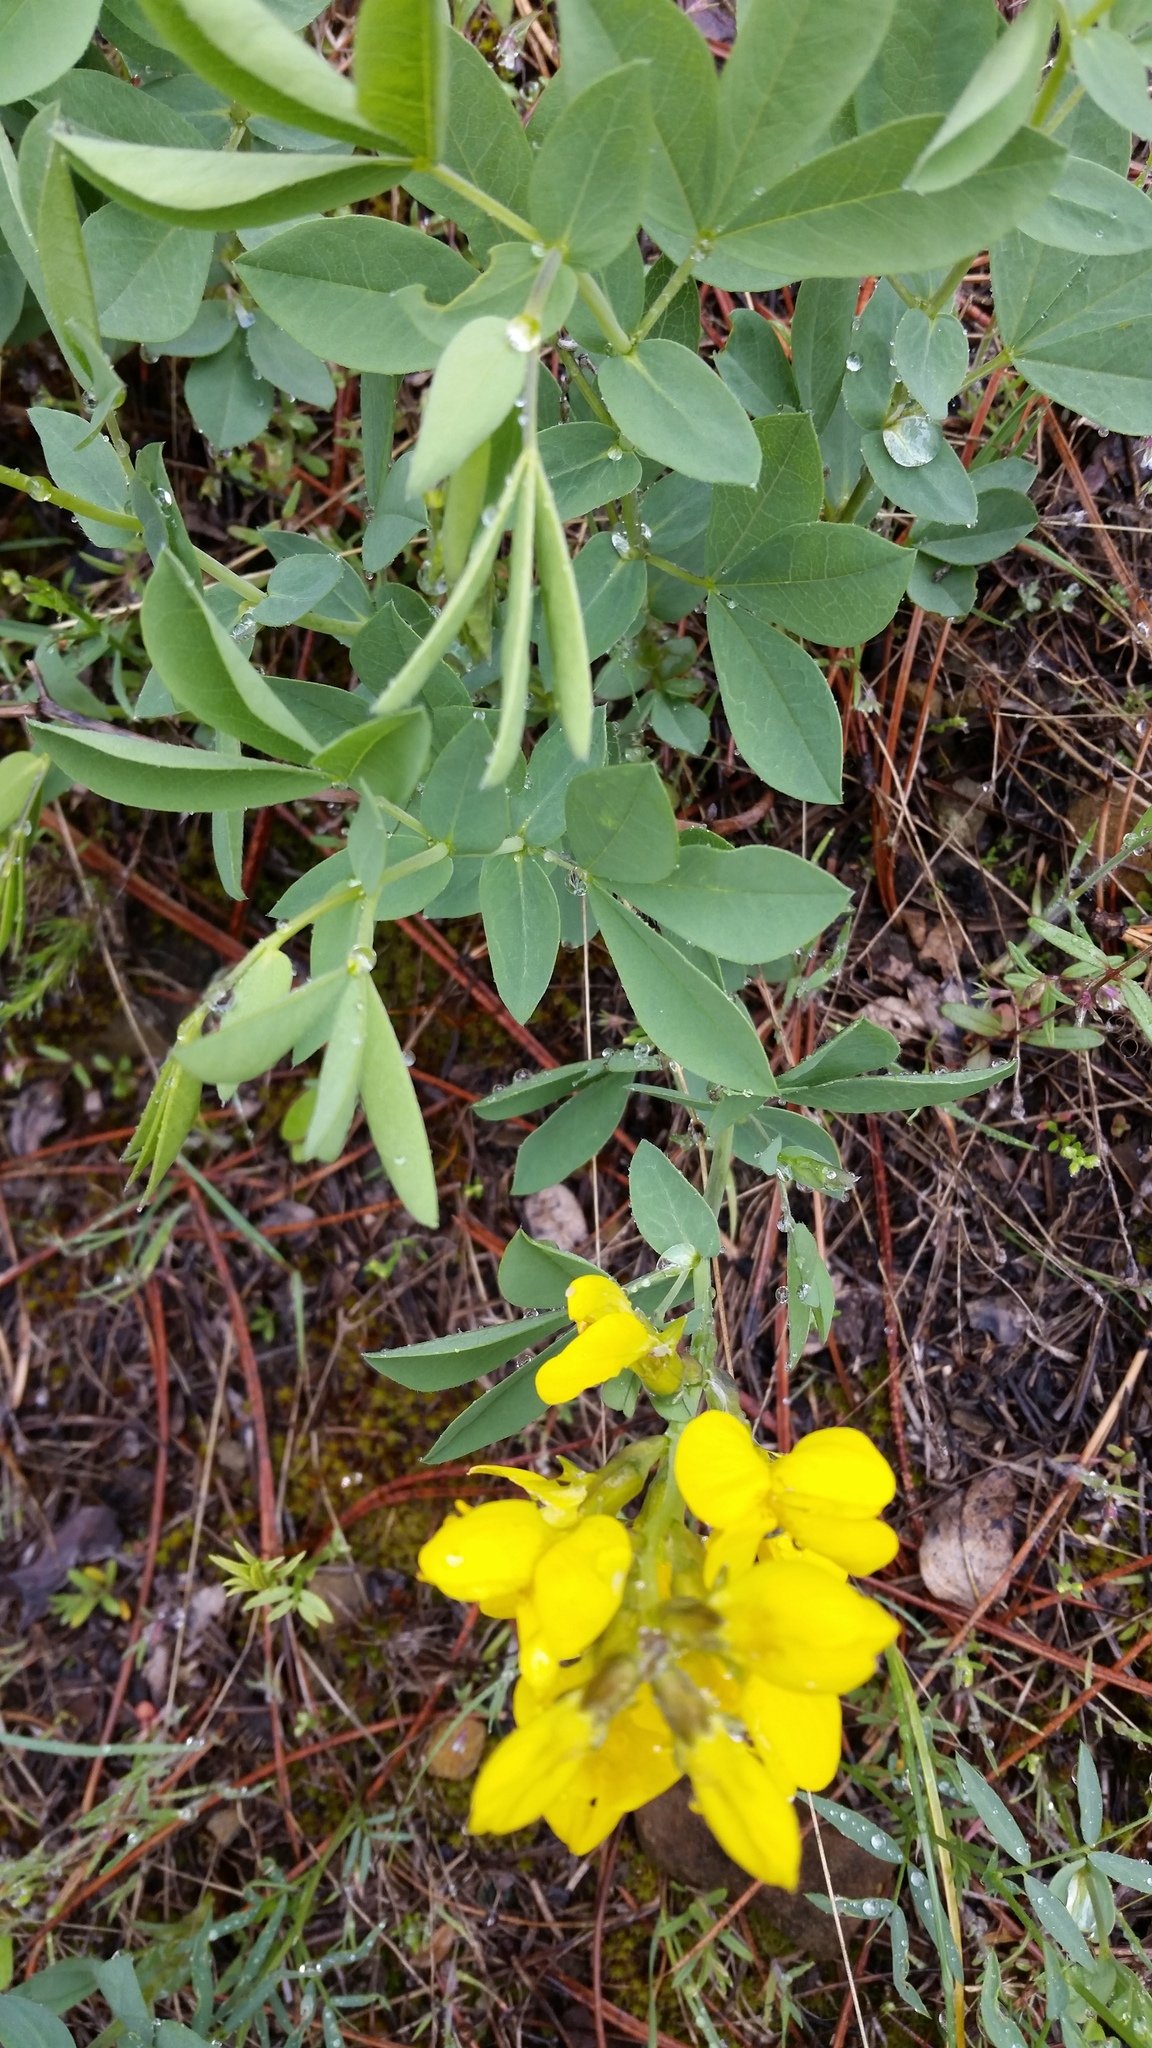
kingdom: Plantae
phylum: Tracheophyta
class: Magnoliopsida
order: Fabales
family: Fabaceae
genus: Thermopsis
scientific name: Thermopsis rhombifolia
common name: Circle-pod-pea
